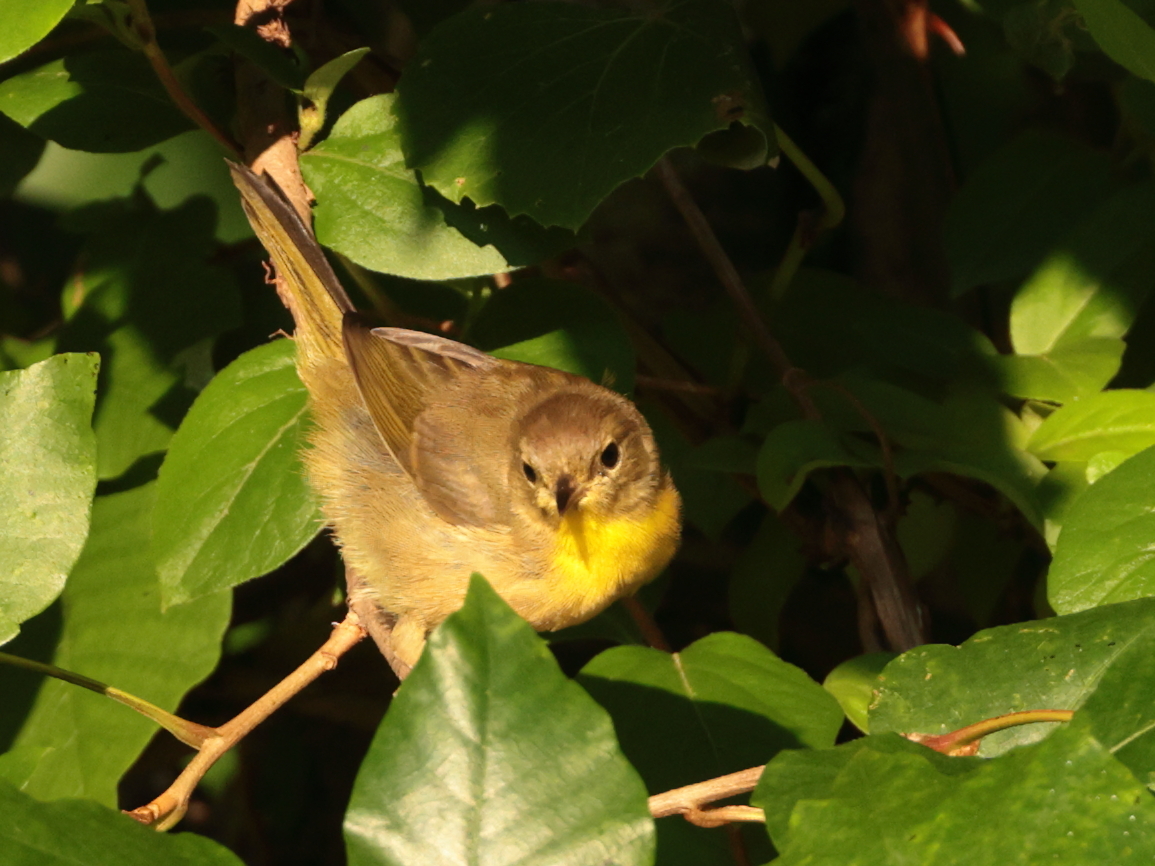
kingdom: Animalia
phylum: Chordata
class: Aves
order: Passeriformes
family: Parulidae
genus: Geothlypis
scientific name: Geothlypis trichas
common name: Common yellowthroat
